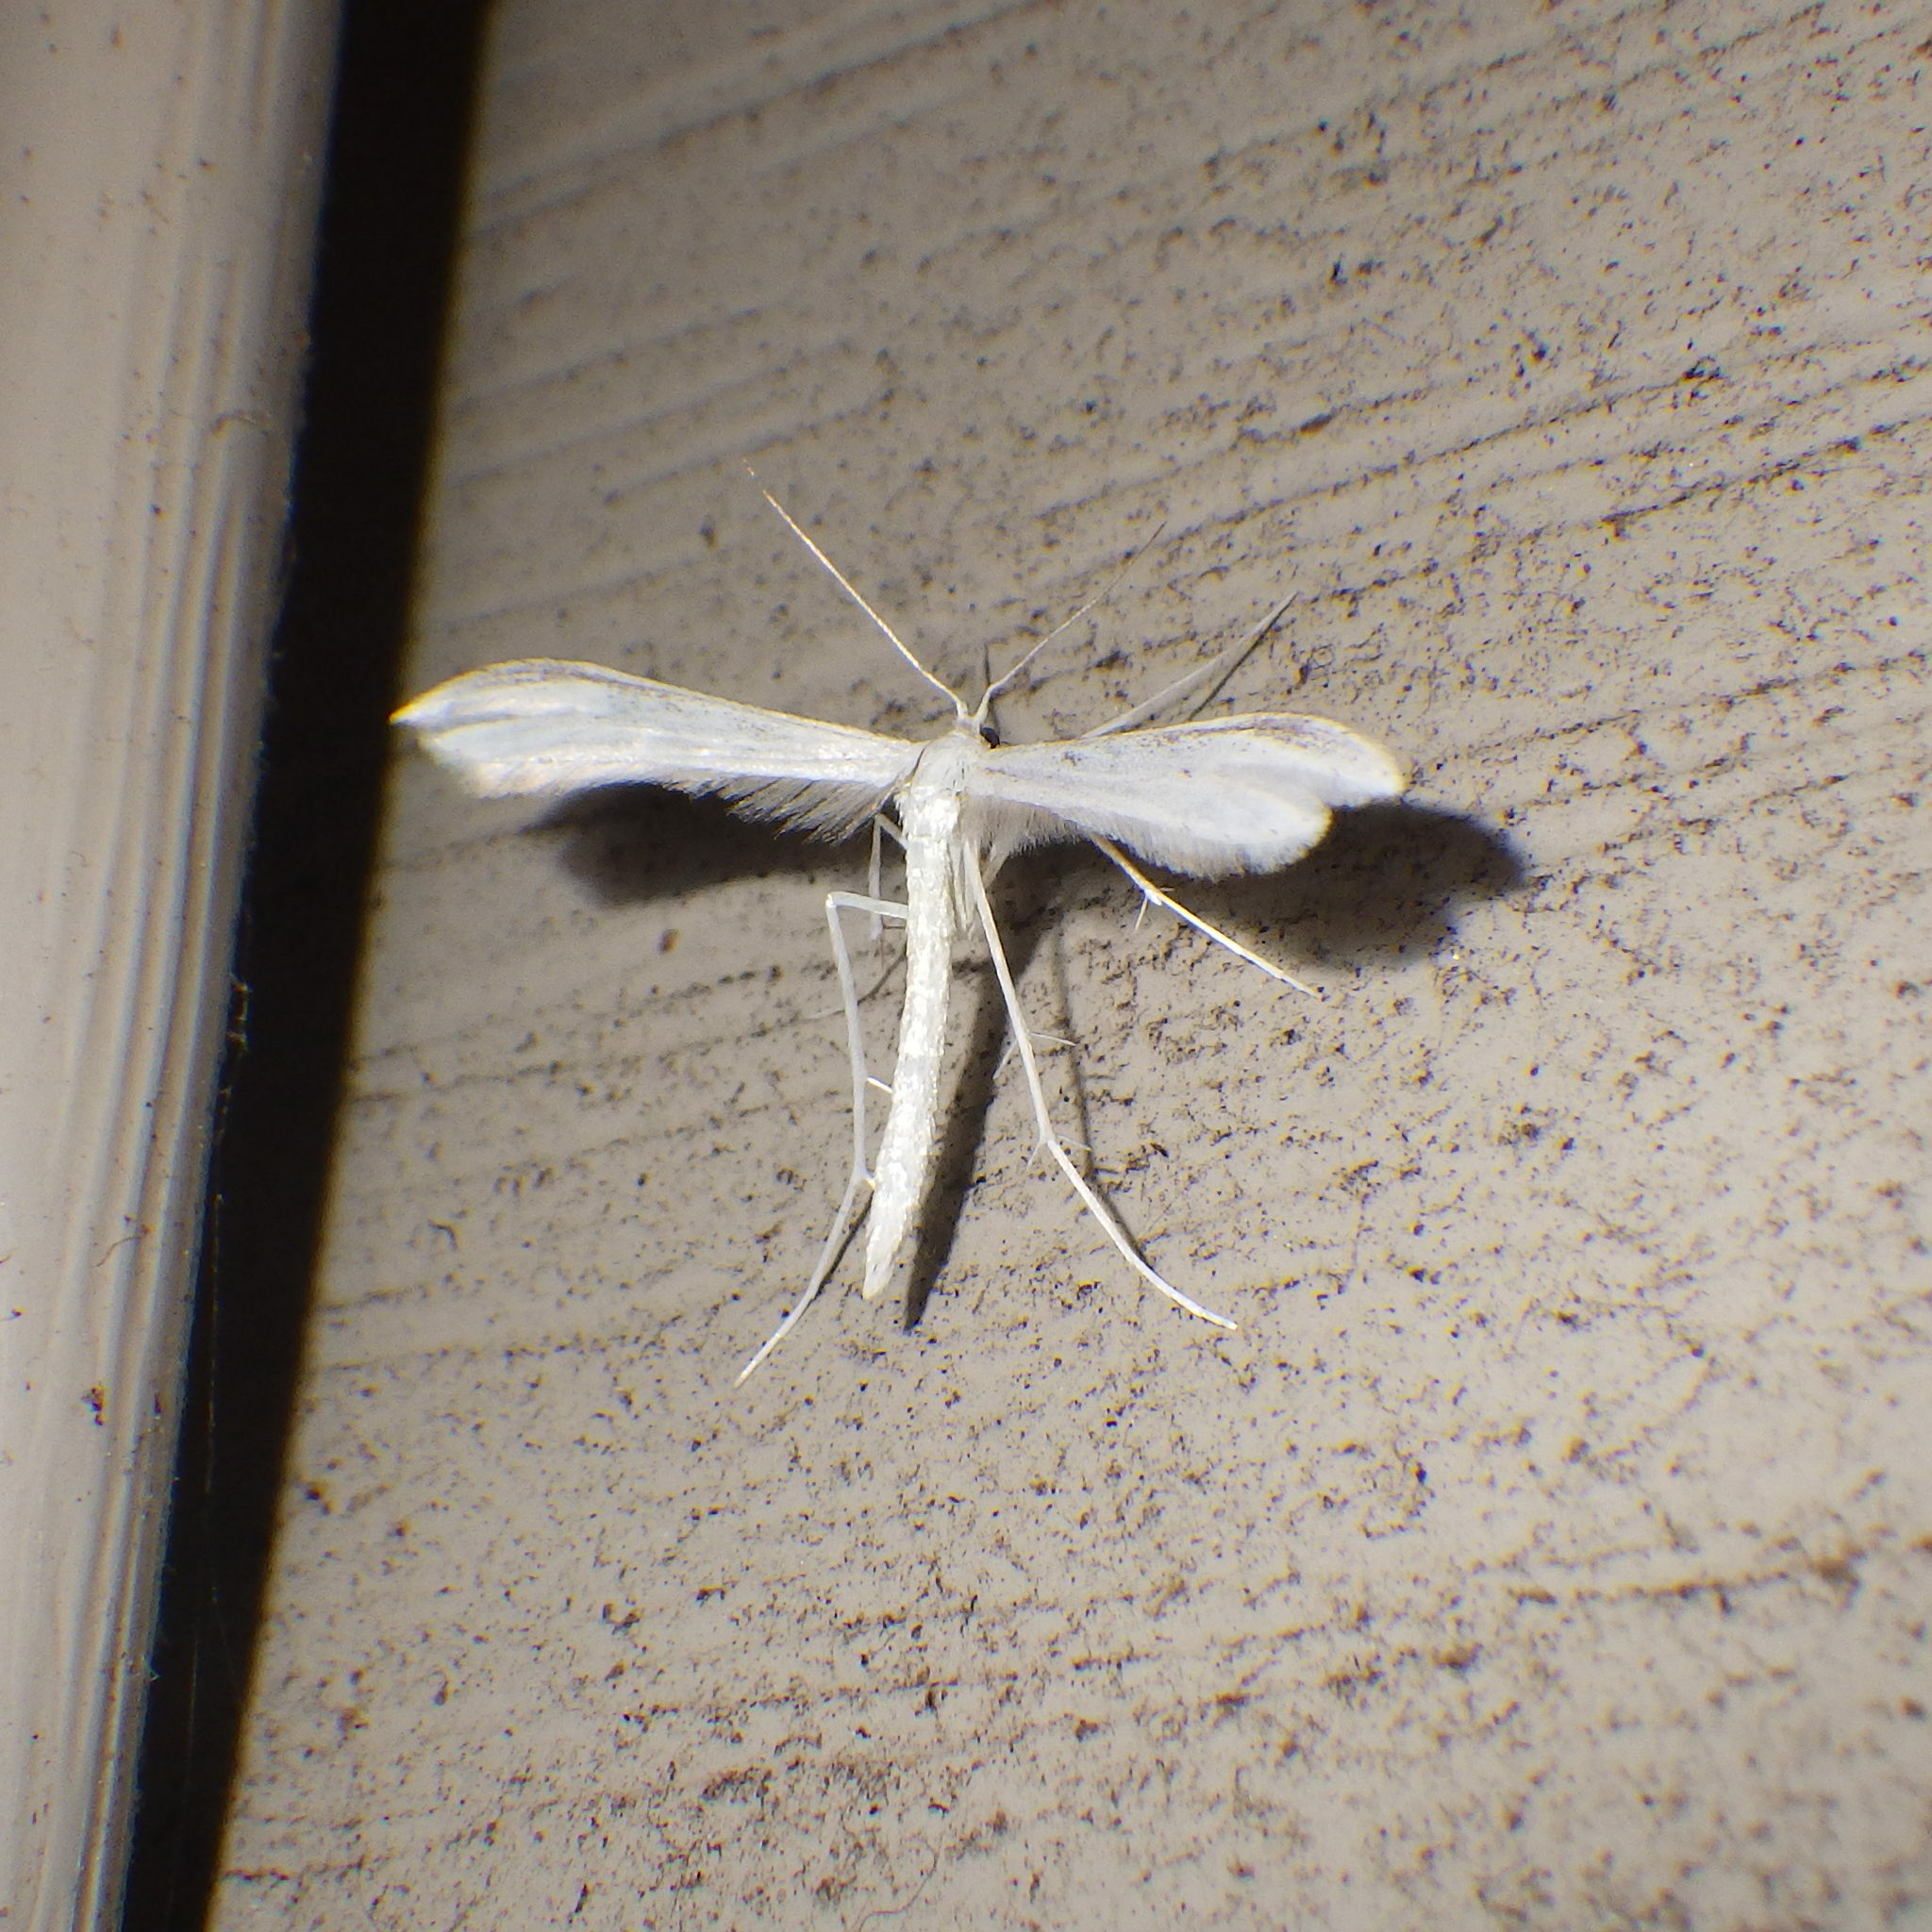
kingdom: Animalia
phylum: Arthropoda
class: Insecta
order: Lepidoptera
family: Pterophoridae
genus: Hellinsia
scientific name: Hellinsia homodactylus
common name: Plain plume moth
